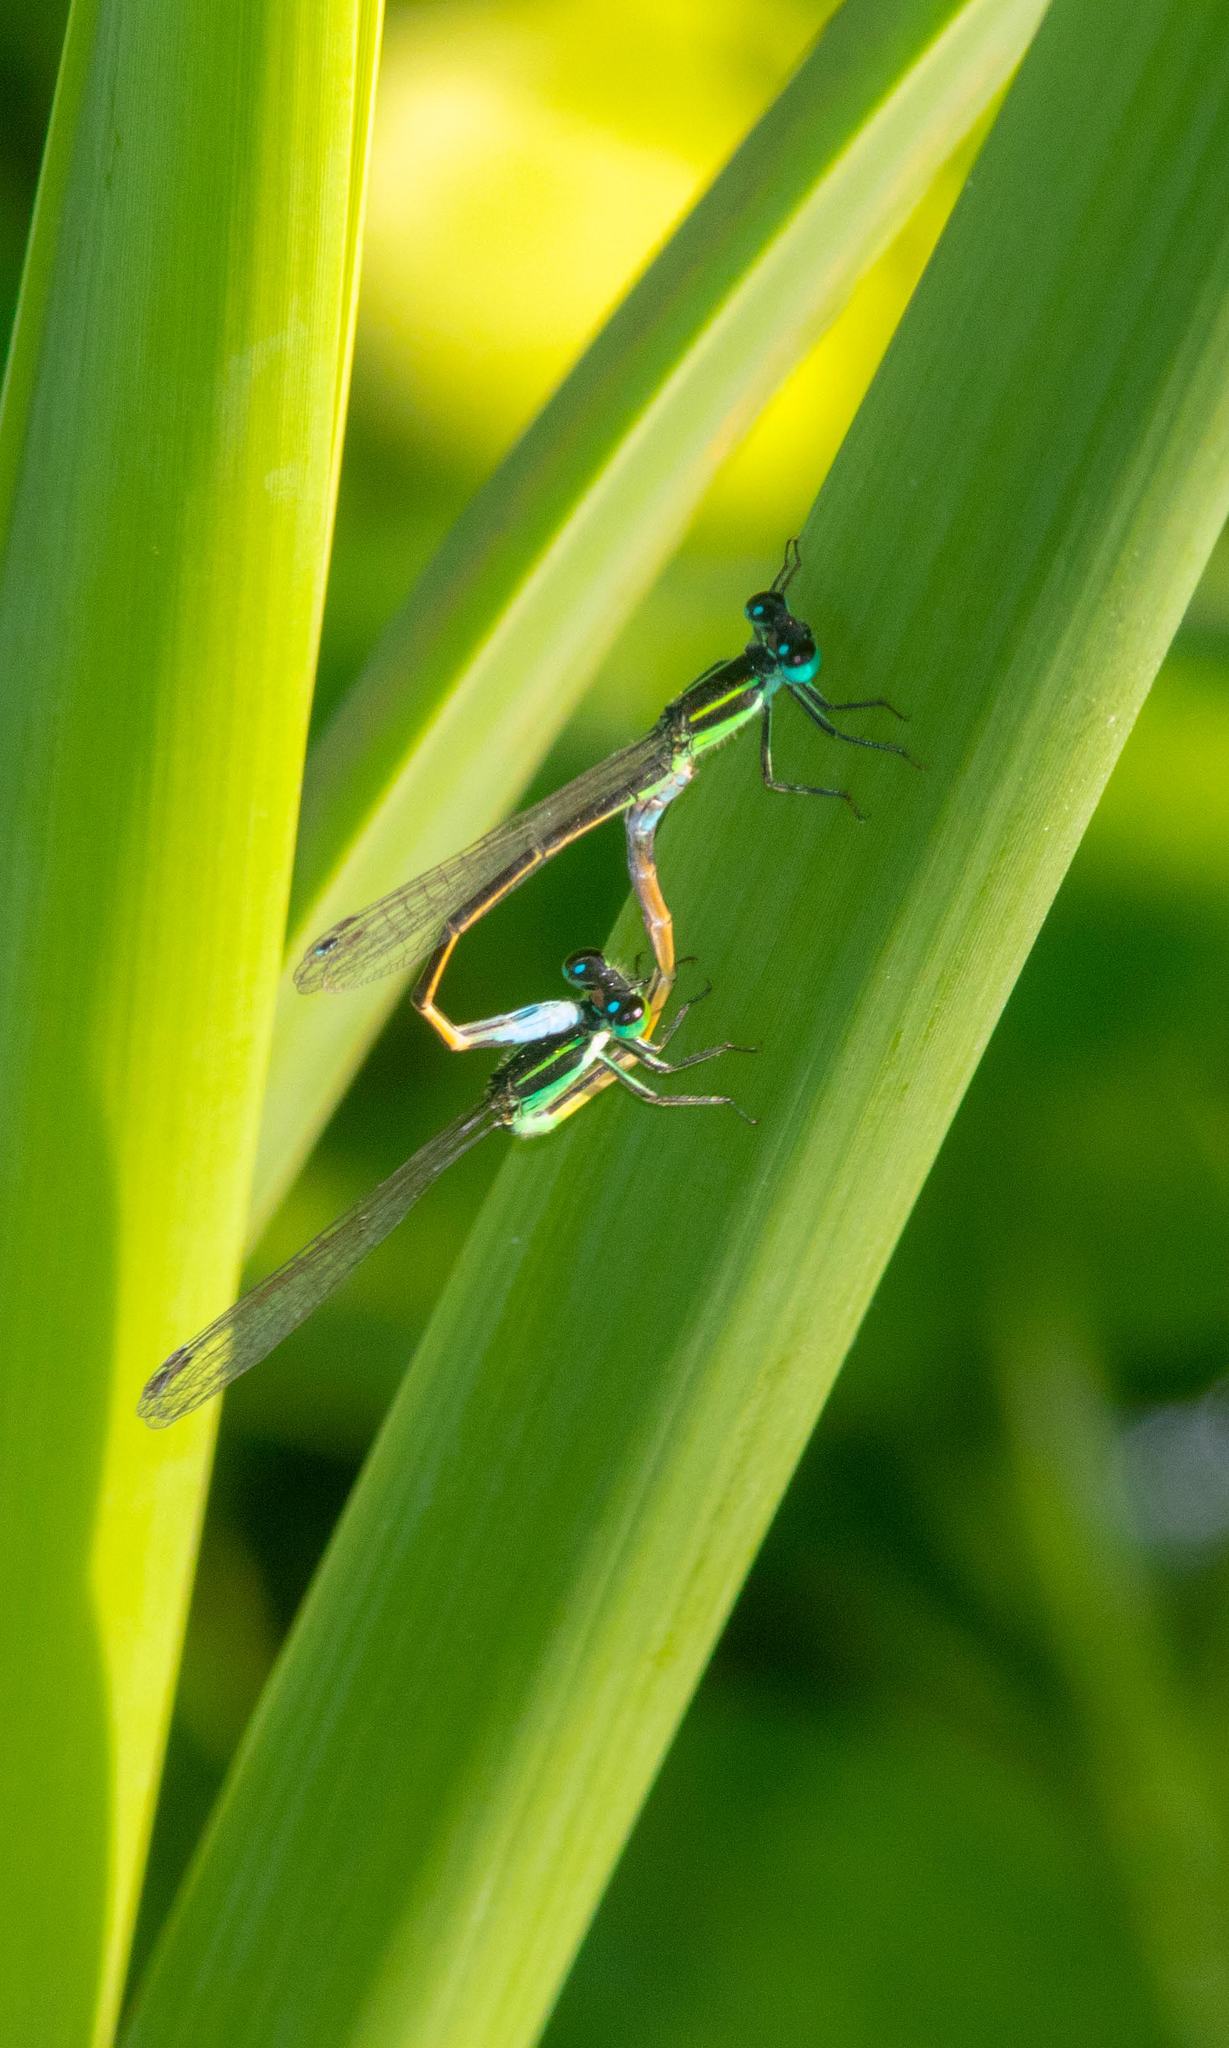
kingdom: Animalia
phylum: Arthropoda
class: Insecta
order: Odonata
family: Coenagrionidae
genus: Ischnura
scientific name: Ischnura ramburii
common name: Rambur's forktail
